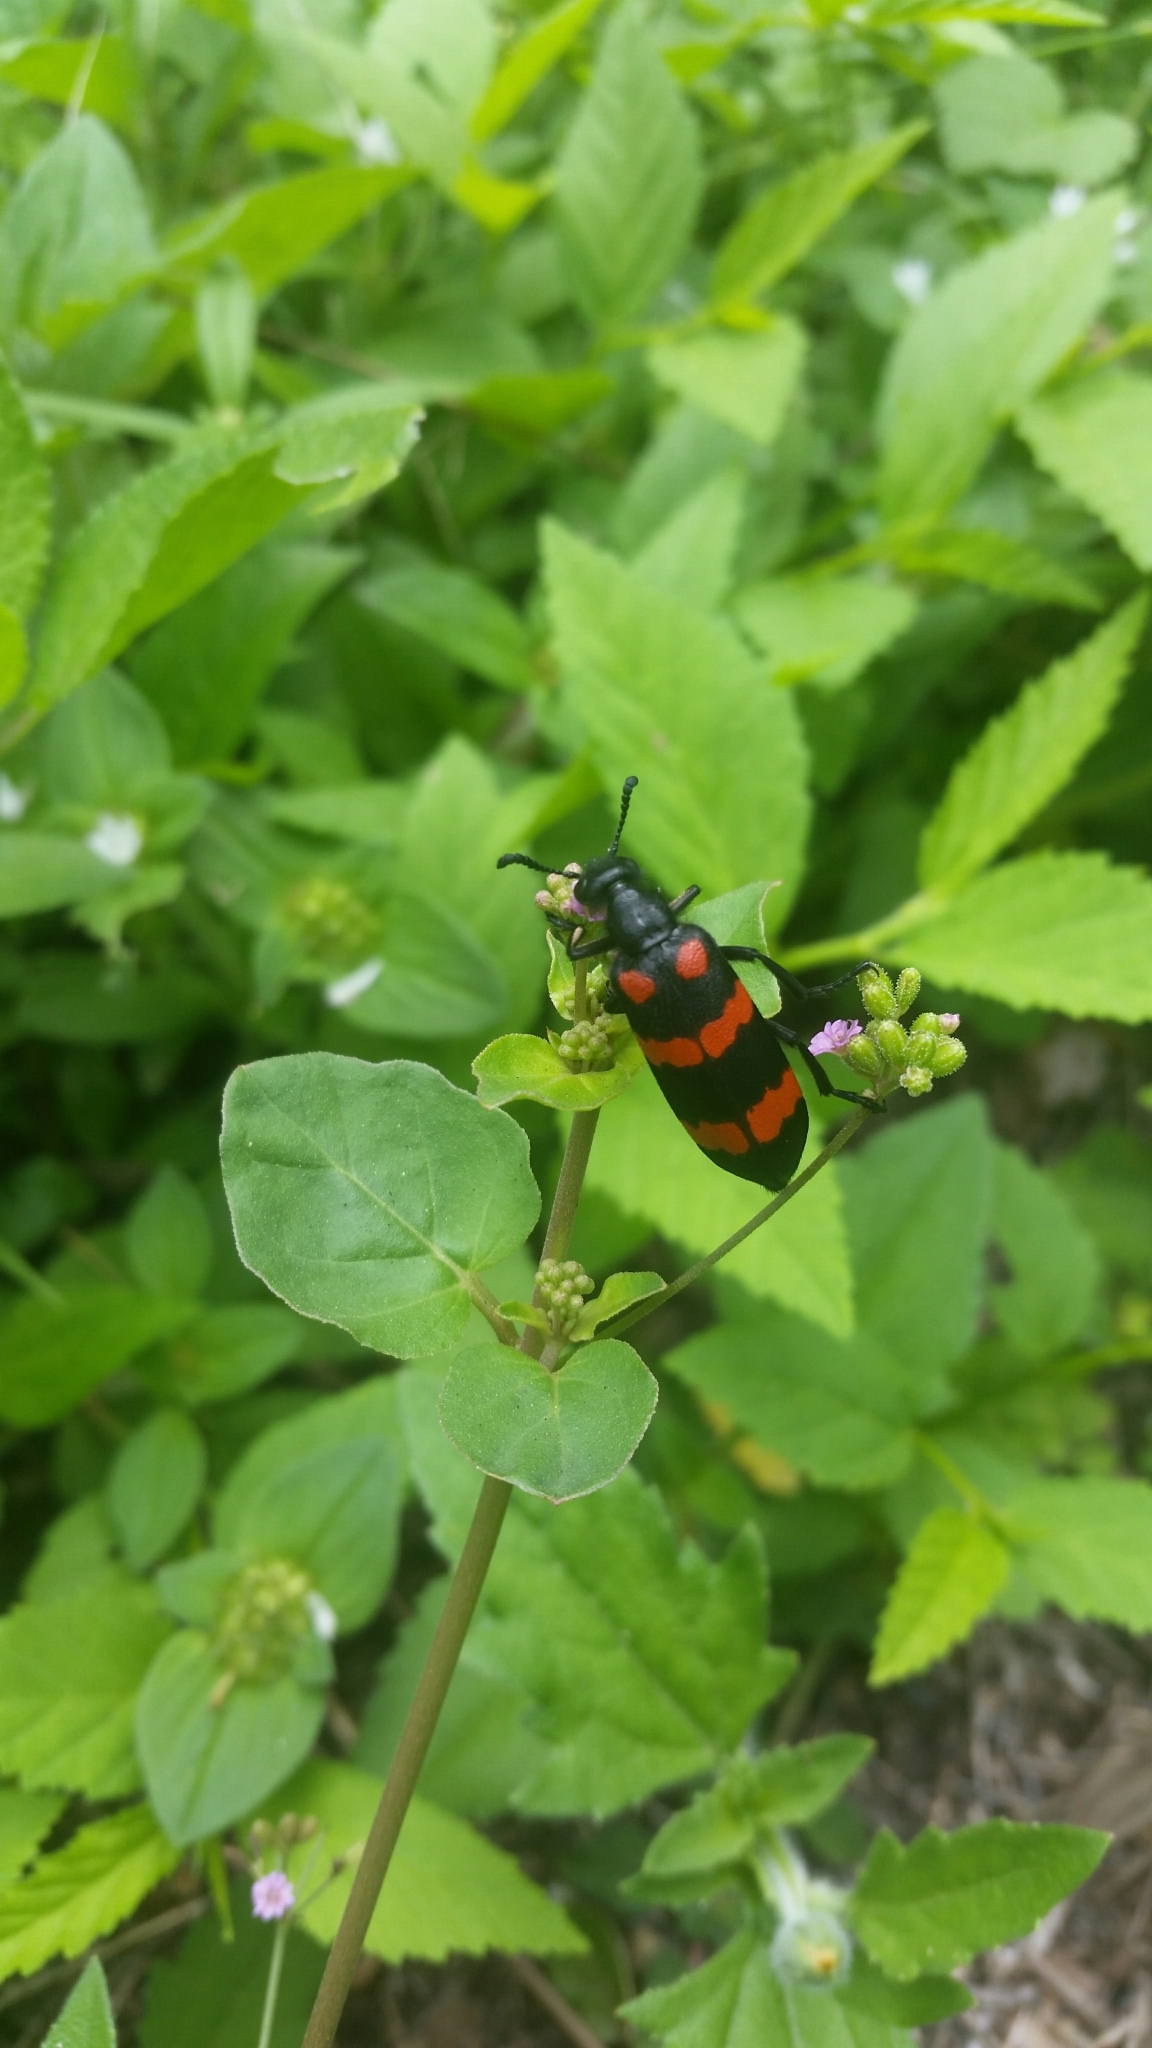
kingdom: Animalia
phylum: Arthropoda
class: Insecta
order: Coleoptera
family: Meloidae
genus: Hycleus
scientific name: Hycleus phaleratus
